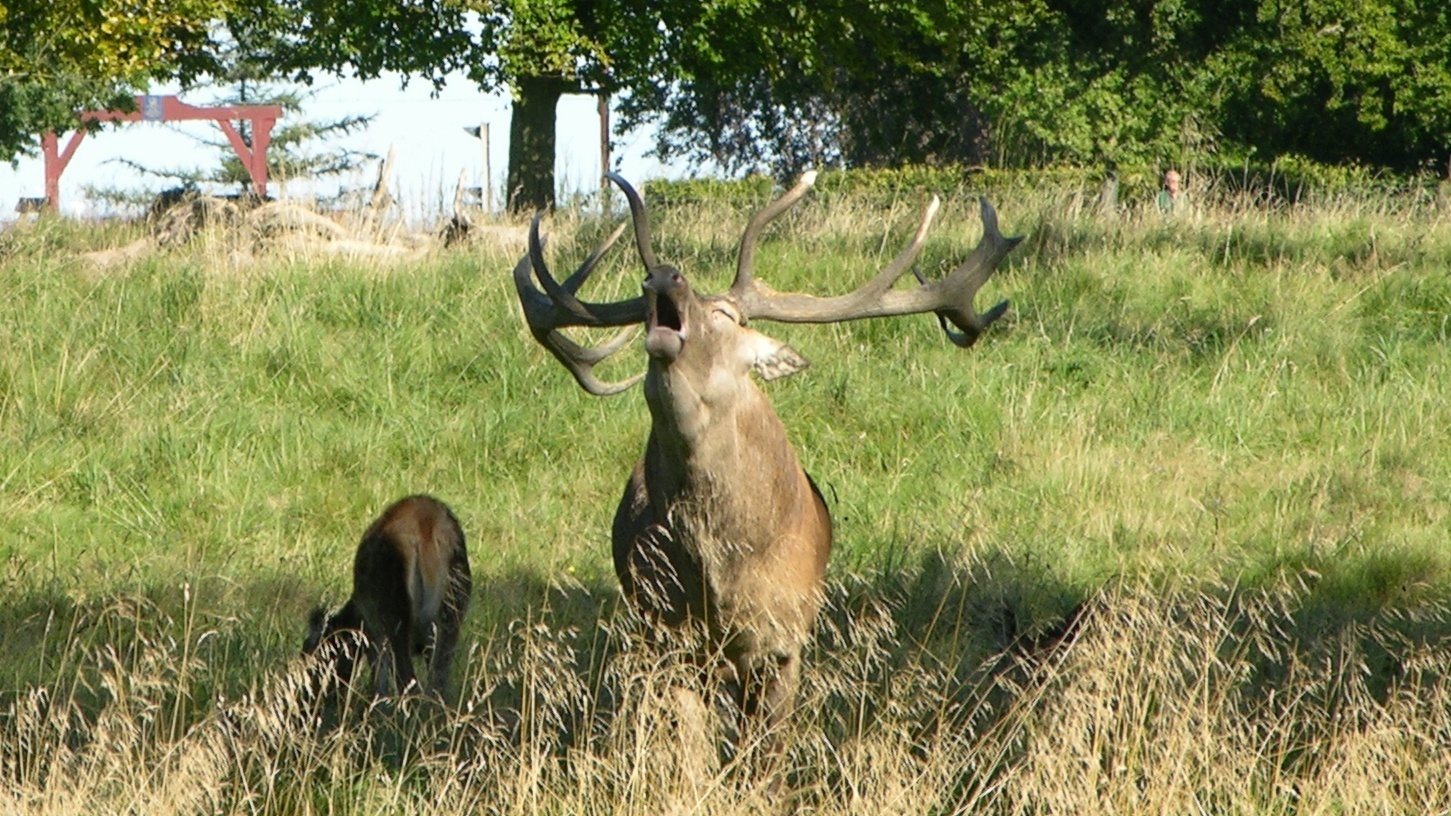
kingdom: Animalia
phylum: Chordata
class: Mammalia
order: Artiodactyla
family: Cervidae
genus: Cervus
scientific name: Cervus elaphus
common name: Red deer
